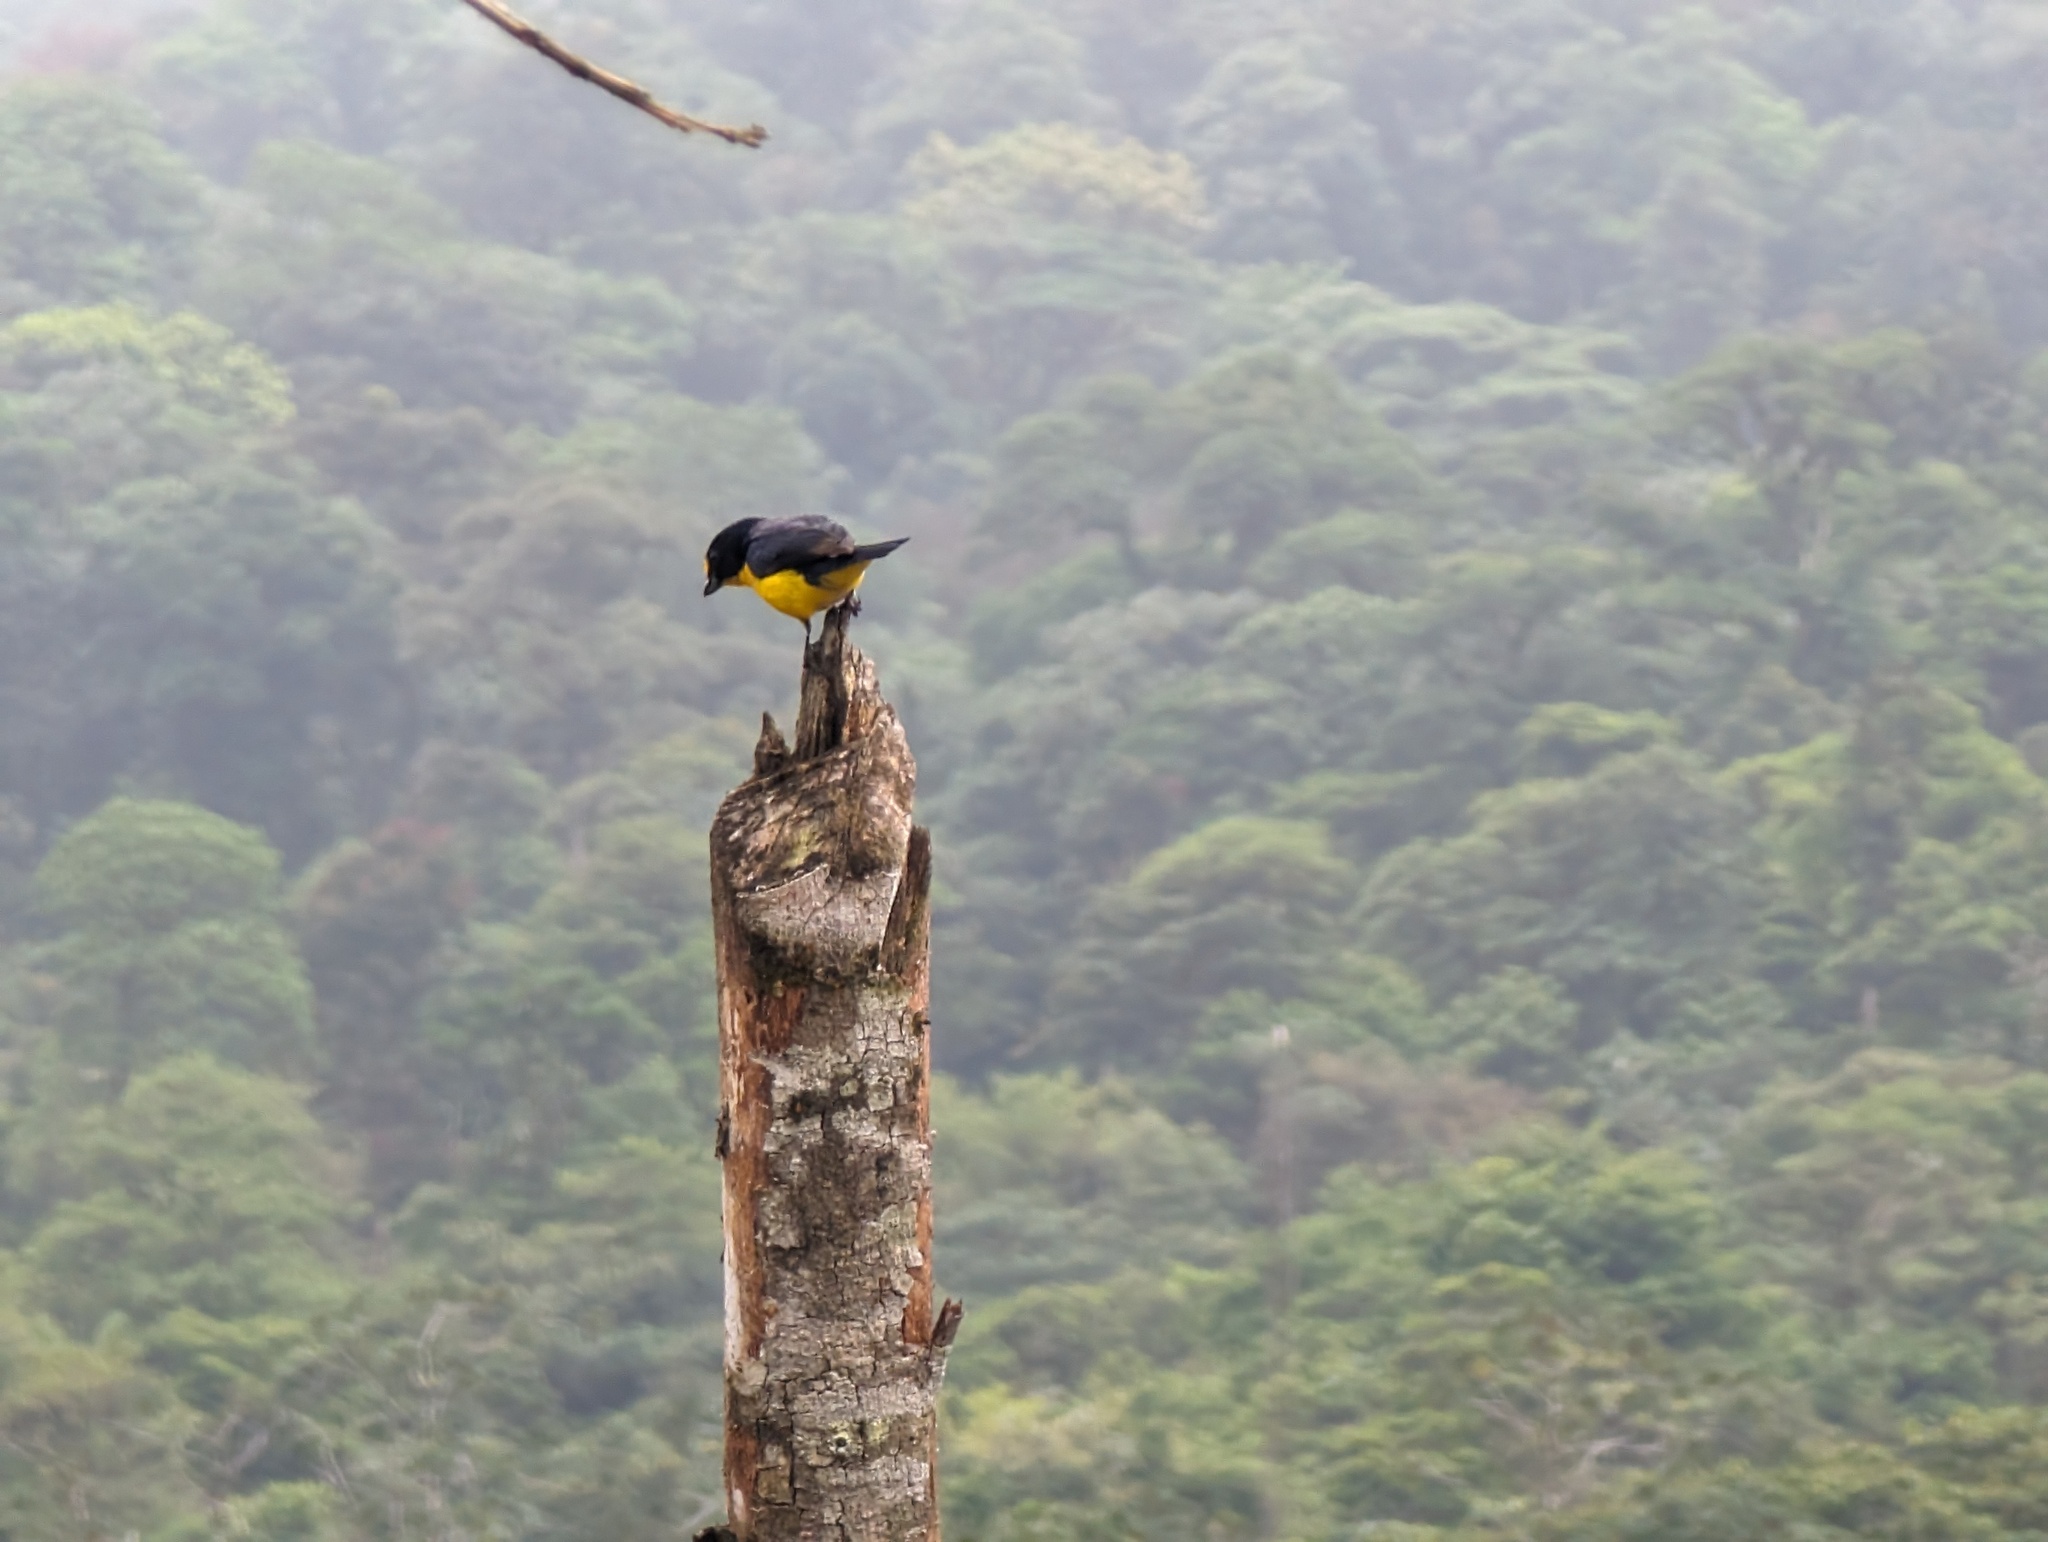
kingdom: Animalia
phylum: Chordata
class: Aves
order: Passeriformes
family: Fringillidae
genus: Euphonia
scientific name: Euphonia hirundinacea
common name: Yellow-throated euphonia
